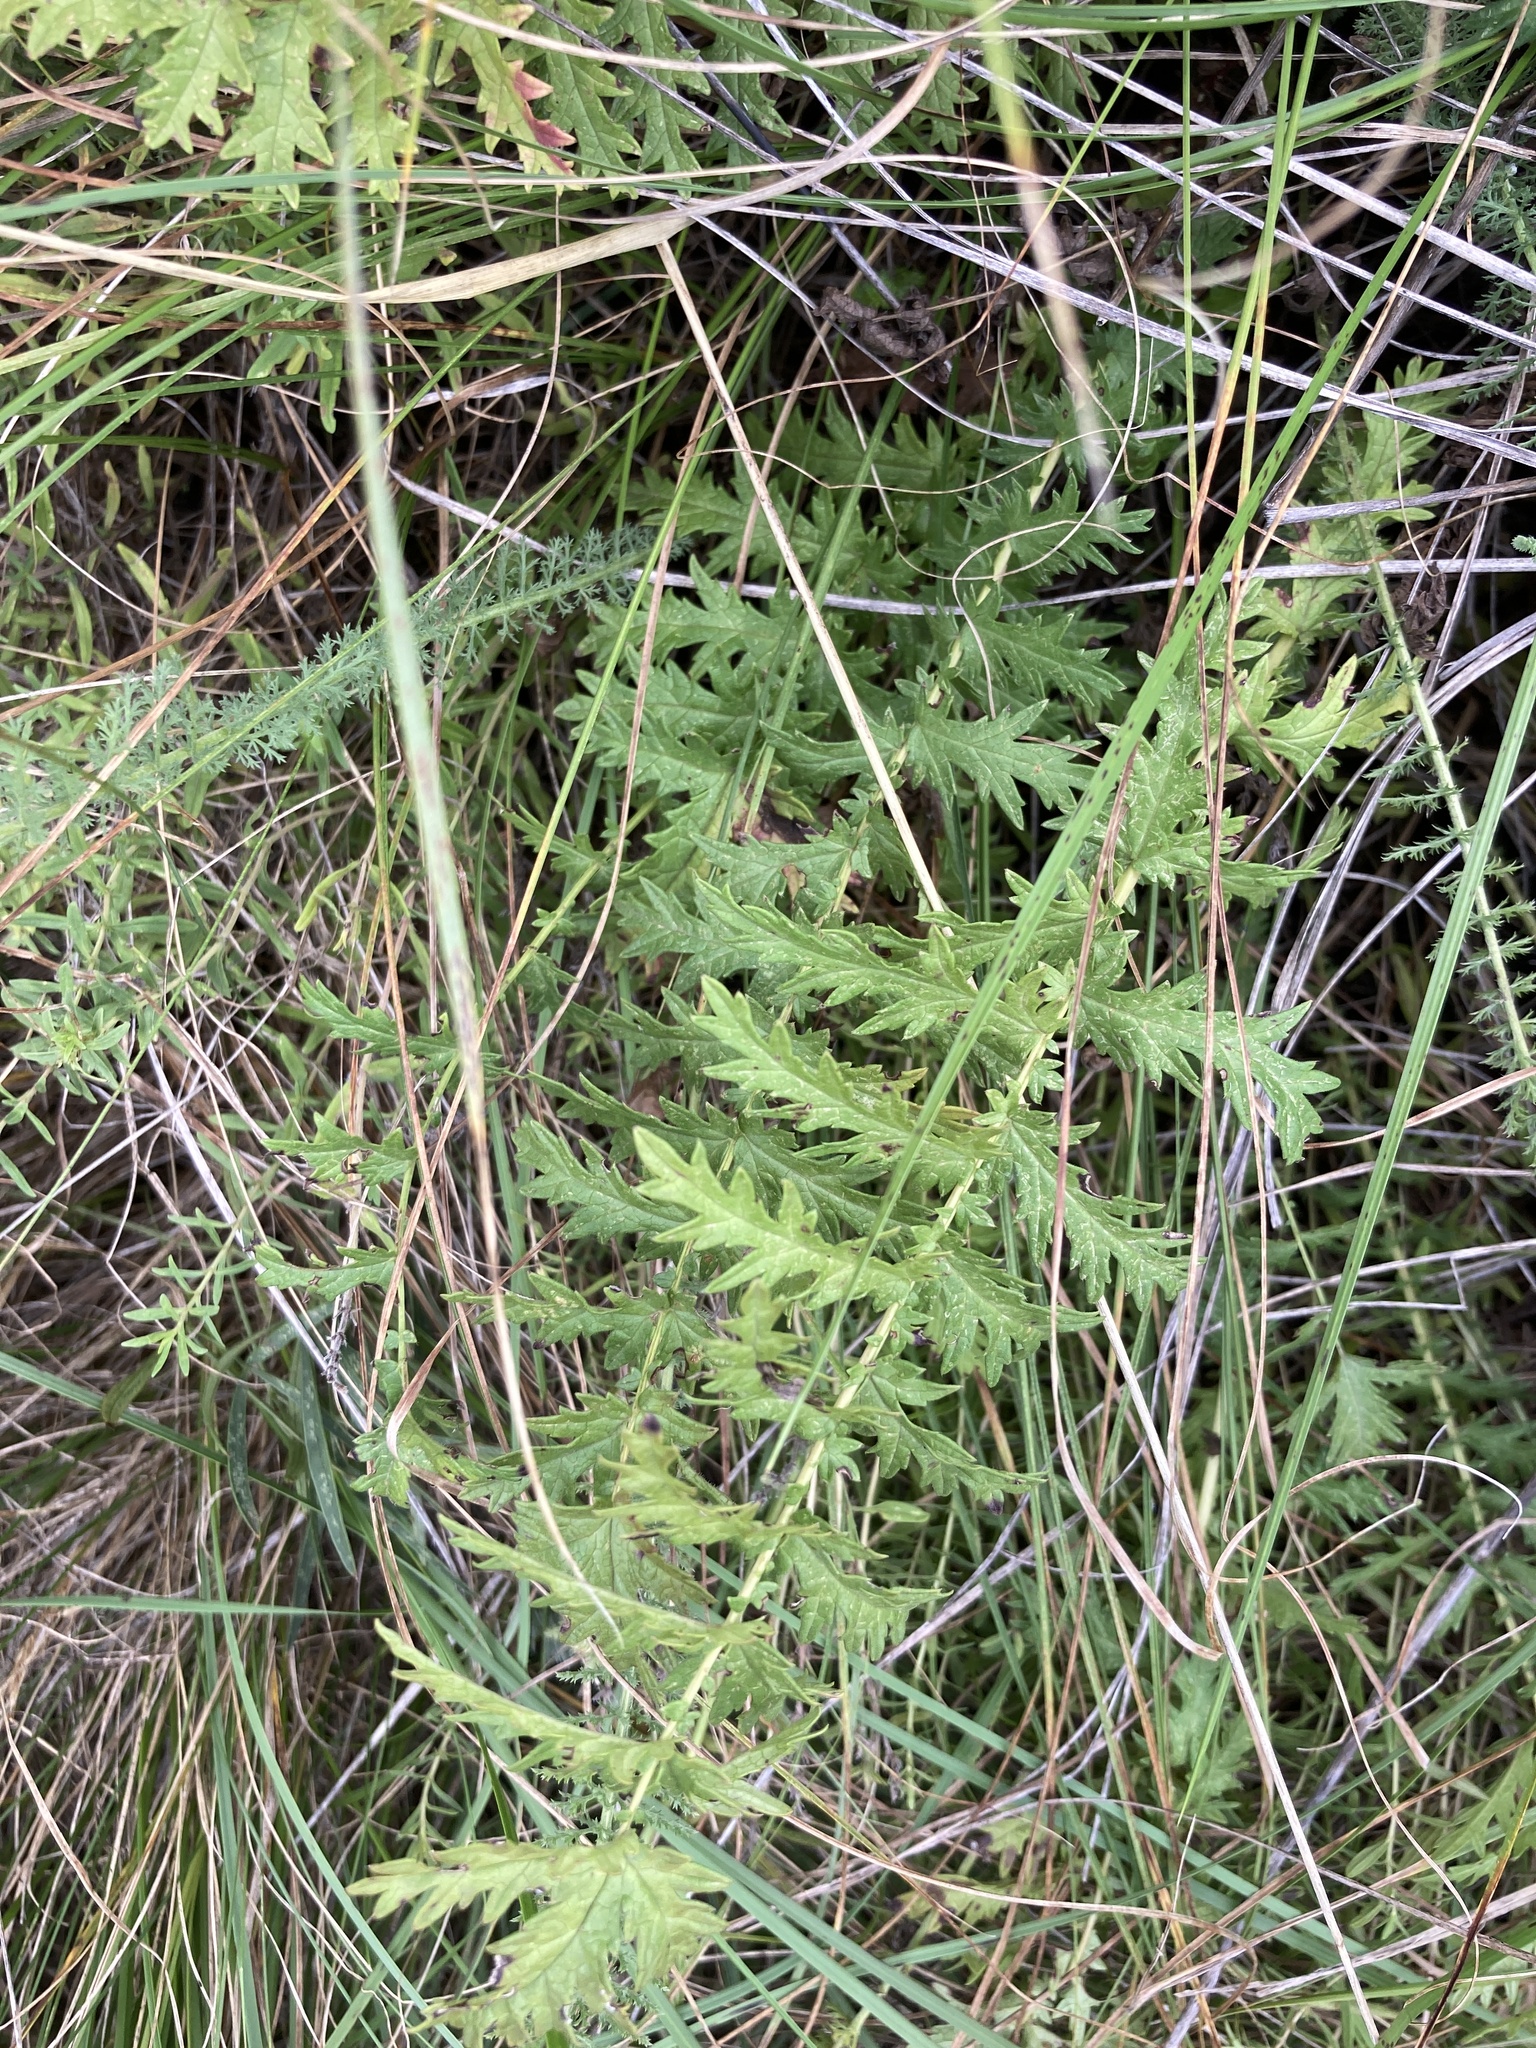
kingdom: Plantae
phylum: Tracheophyta
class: Magnoliopsida
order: Rosales
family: Rosaceae
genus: Filipendula
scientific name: Filipendula vulgaris
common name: Dropwort
